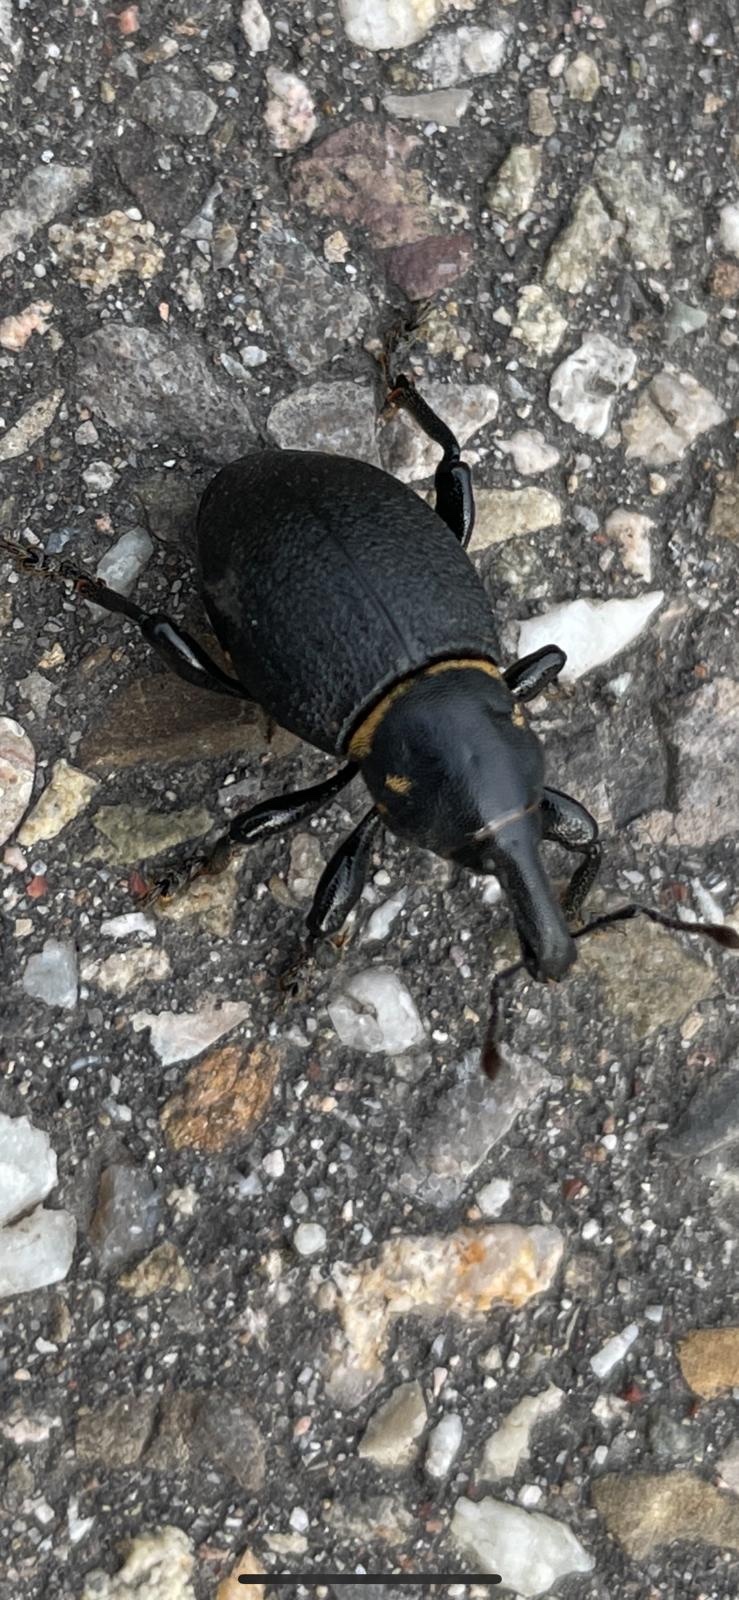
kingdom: Animalia
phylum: Arthropoda
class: Insecta
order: Coleoptera
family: Curculionidae
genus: Liparus
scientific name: Liparus coronatus
